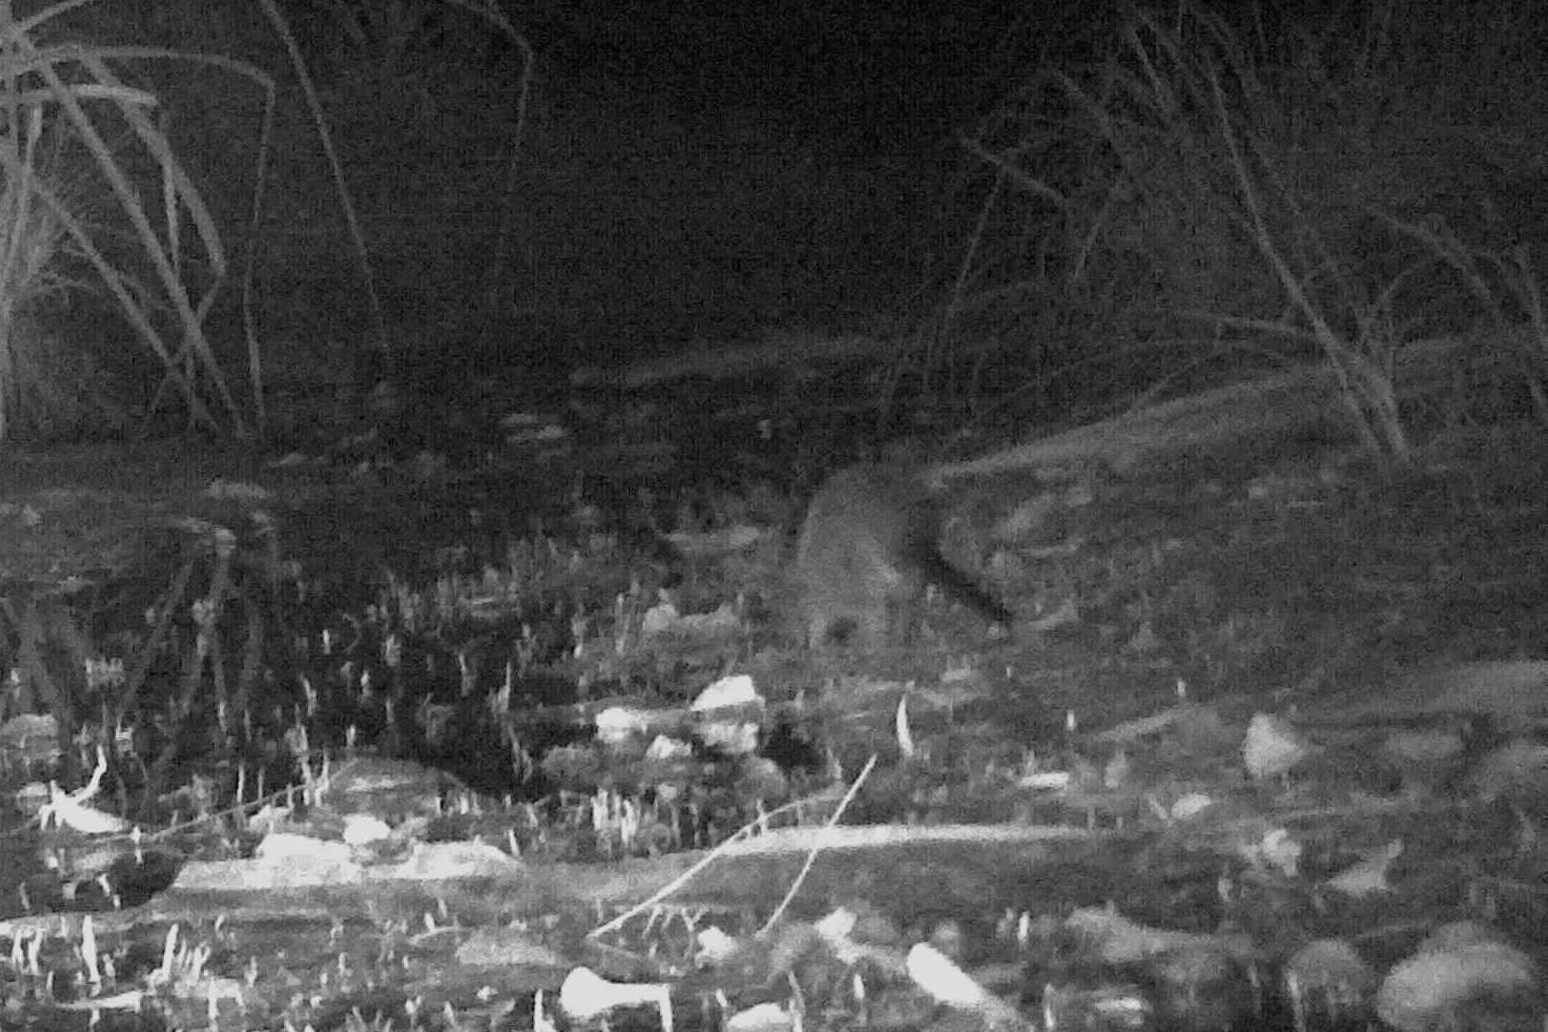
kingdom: Animalia
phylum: Chordata
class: Mammalia
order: Rodentia
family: Muridae
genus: Hydromys
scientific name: Hydromys chrysogaster
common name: Common water rat
